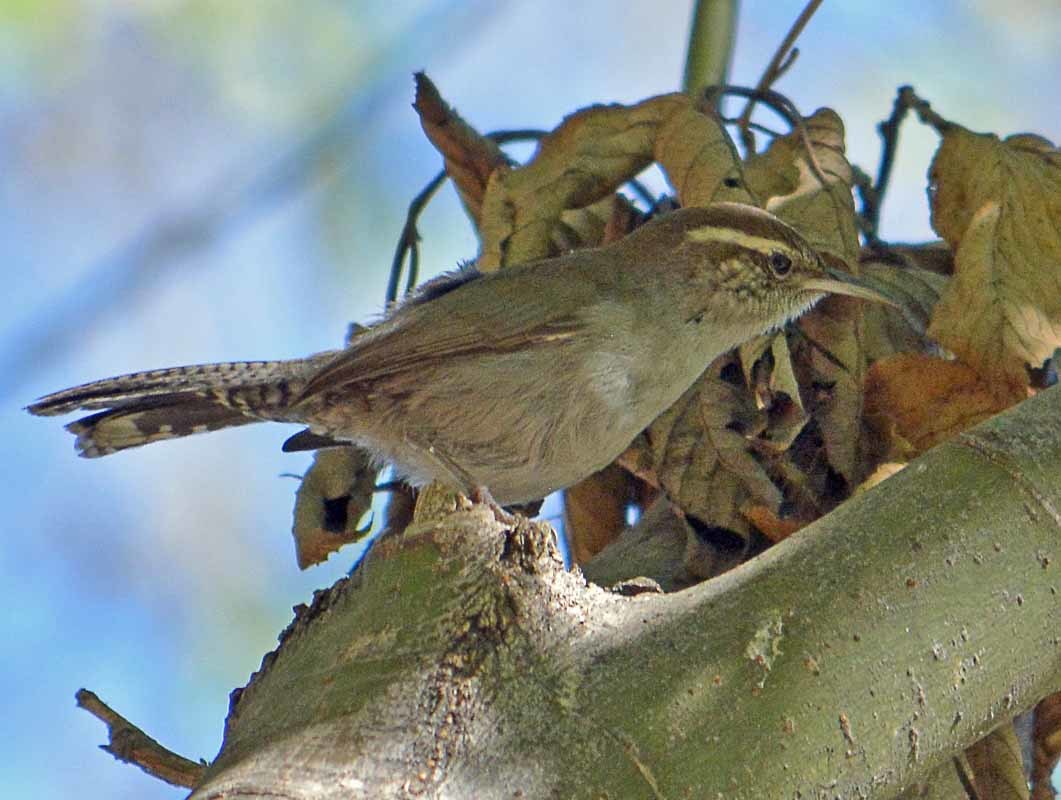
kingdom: Animalia
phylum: Chordata
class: Aves
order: Passeriformes
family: Troglodytidae
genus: Thryomanes
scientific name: Thryomanes bewickii
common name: Bewick's wren
